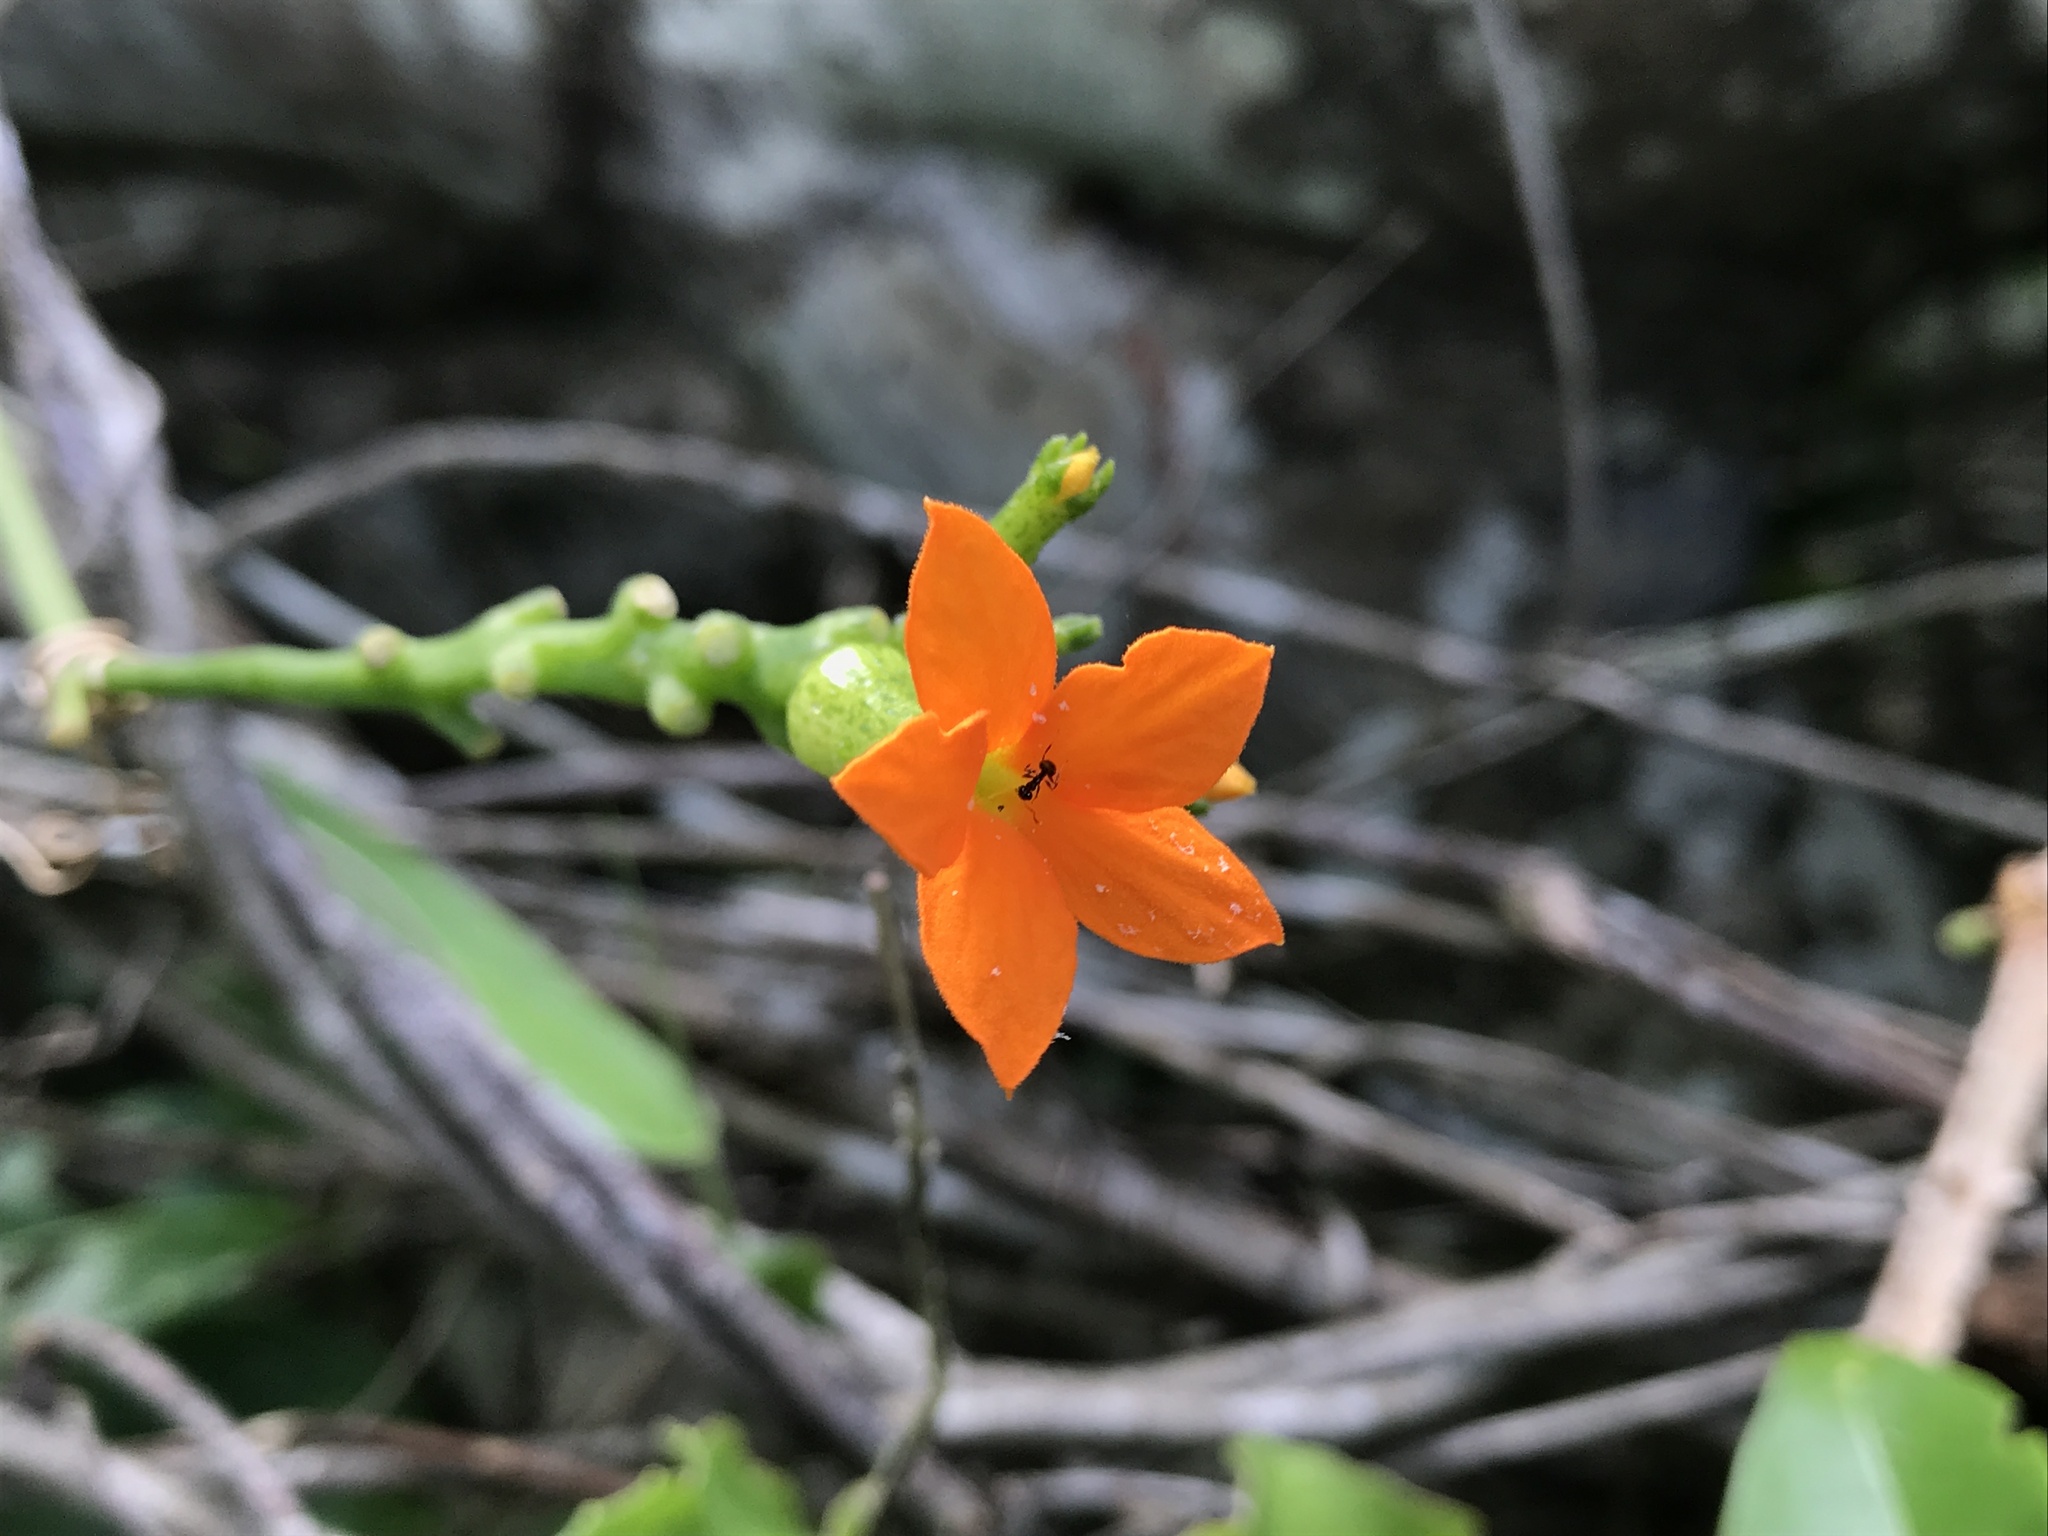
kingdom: Plantae
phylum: Tracheophyta
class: Magnoliopsida
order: Cucurbitales
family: Cucurbitaceae
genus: Psiguria
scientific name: Psiguria umbrosa
